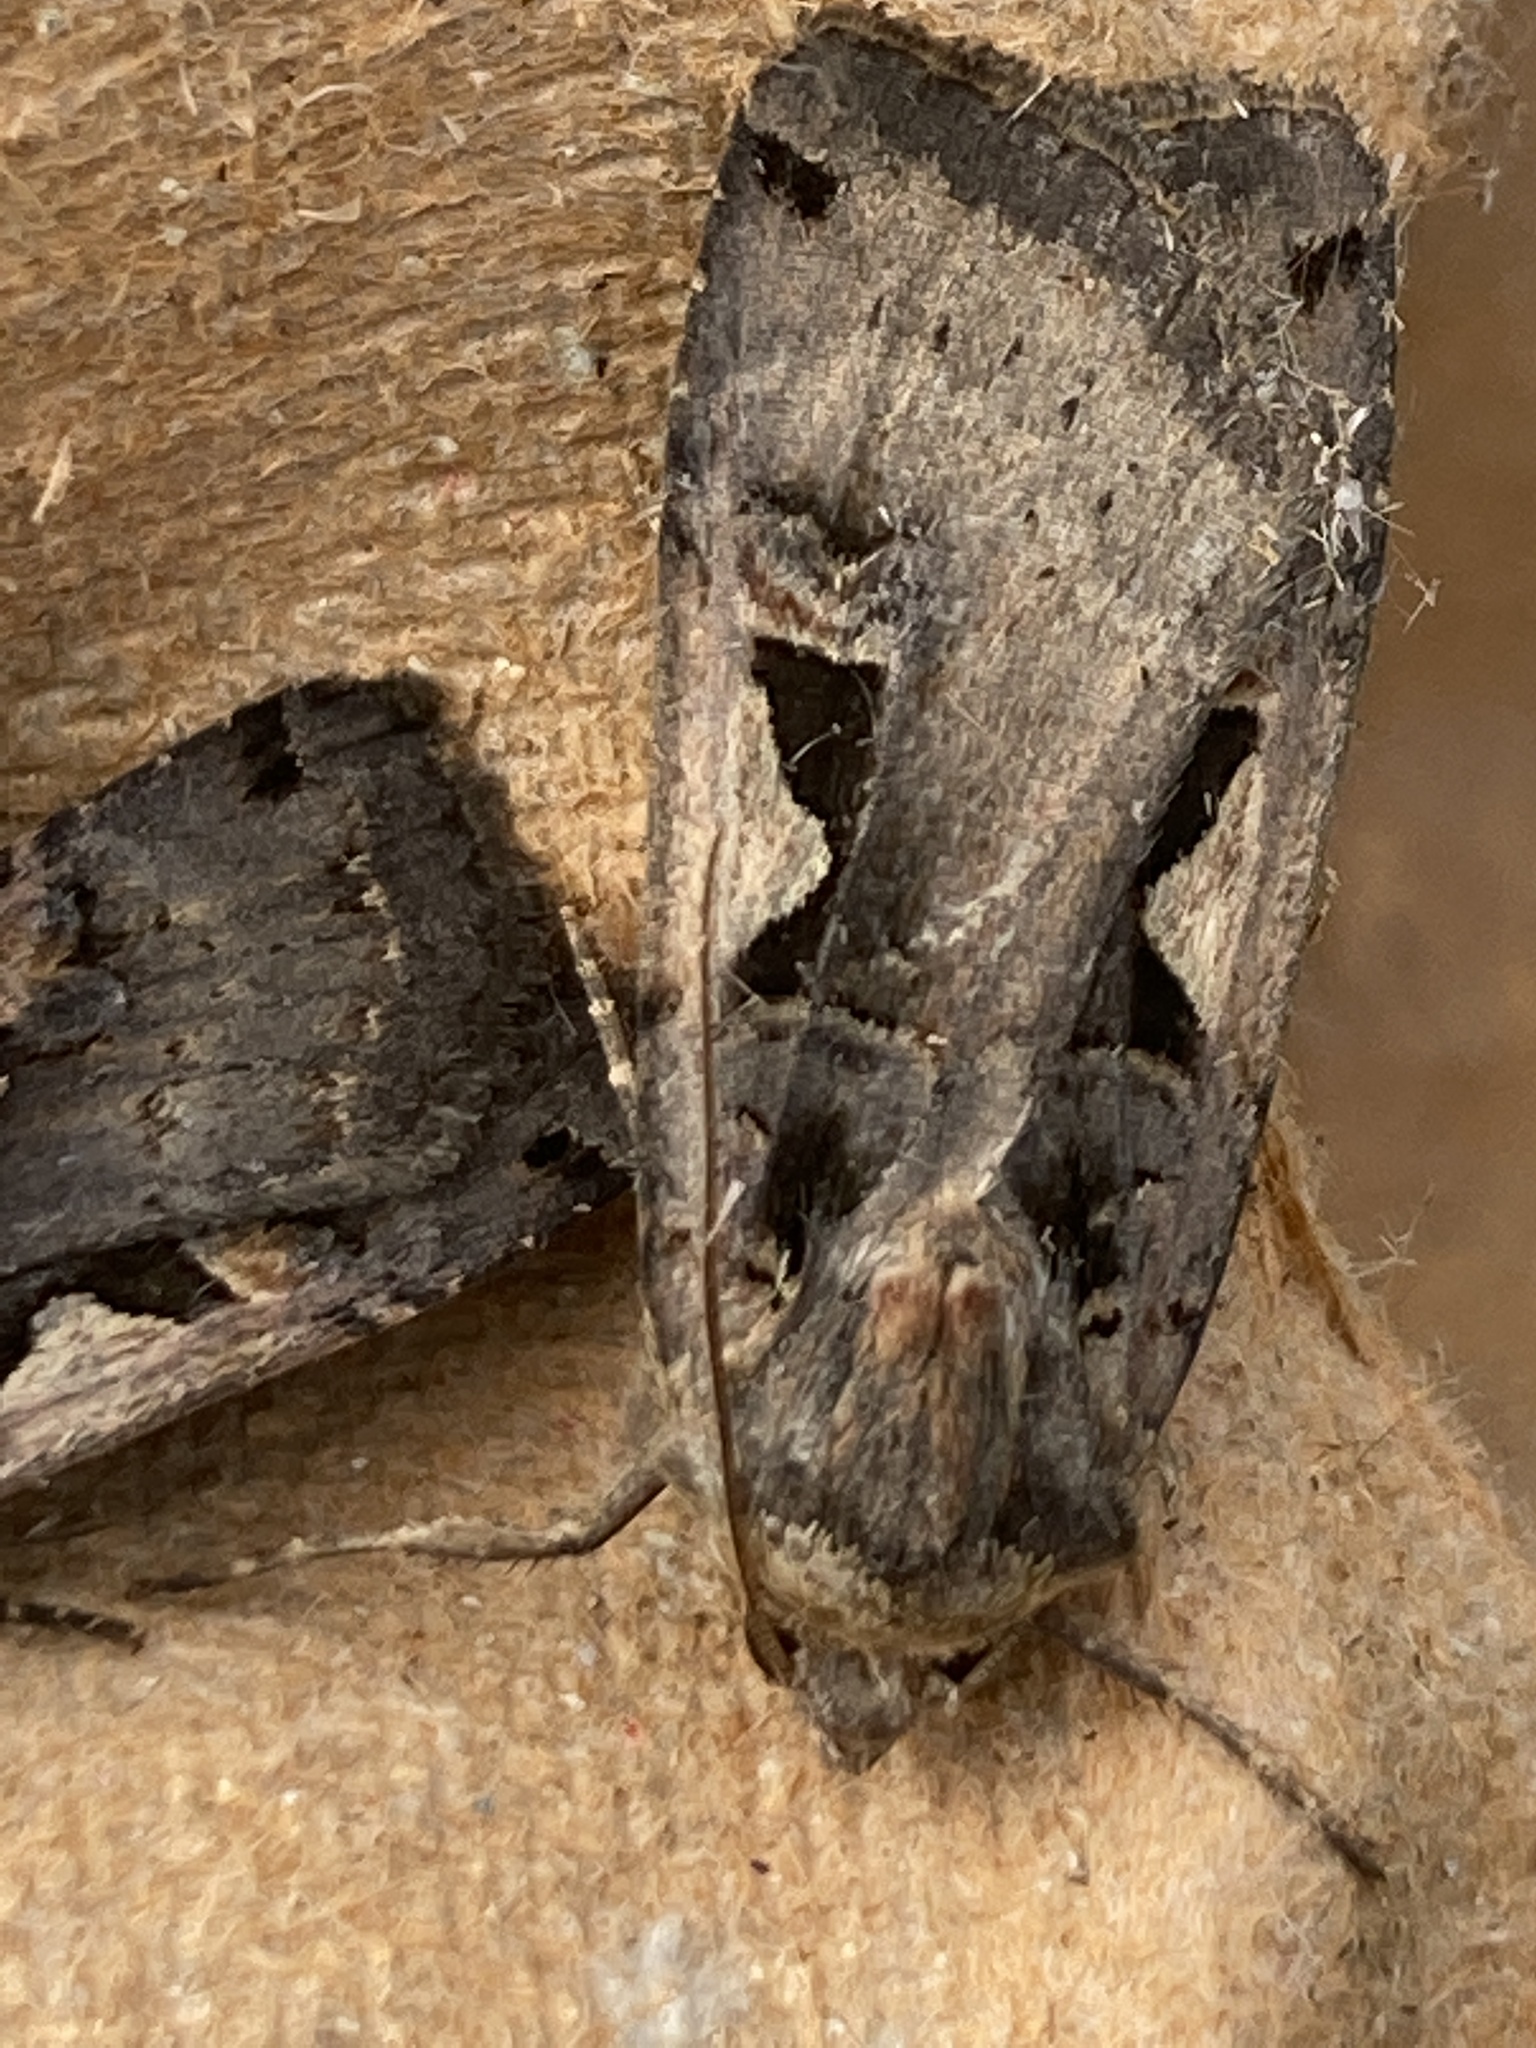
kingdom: Animalia
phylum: Arthropoda
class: Insecta
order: Lepidoptera
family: Noctuidae
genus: Xestia
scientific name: Xestia c-nigrum
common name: Setaceous hebrew character
